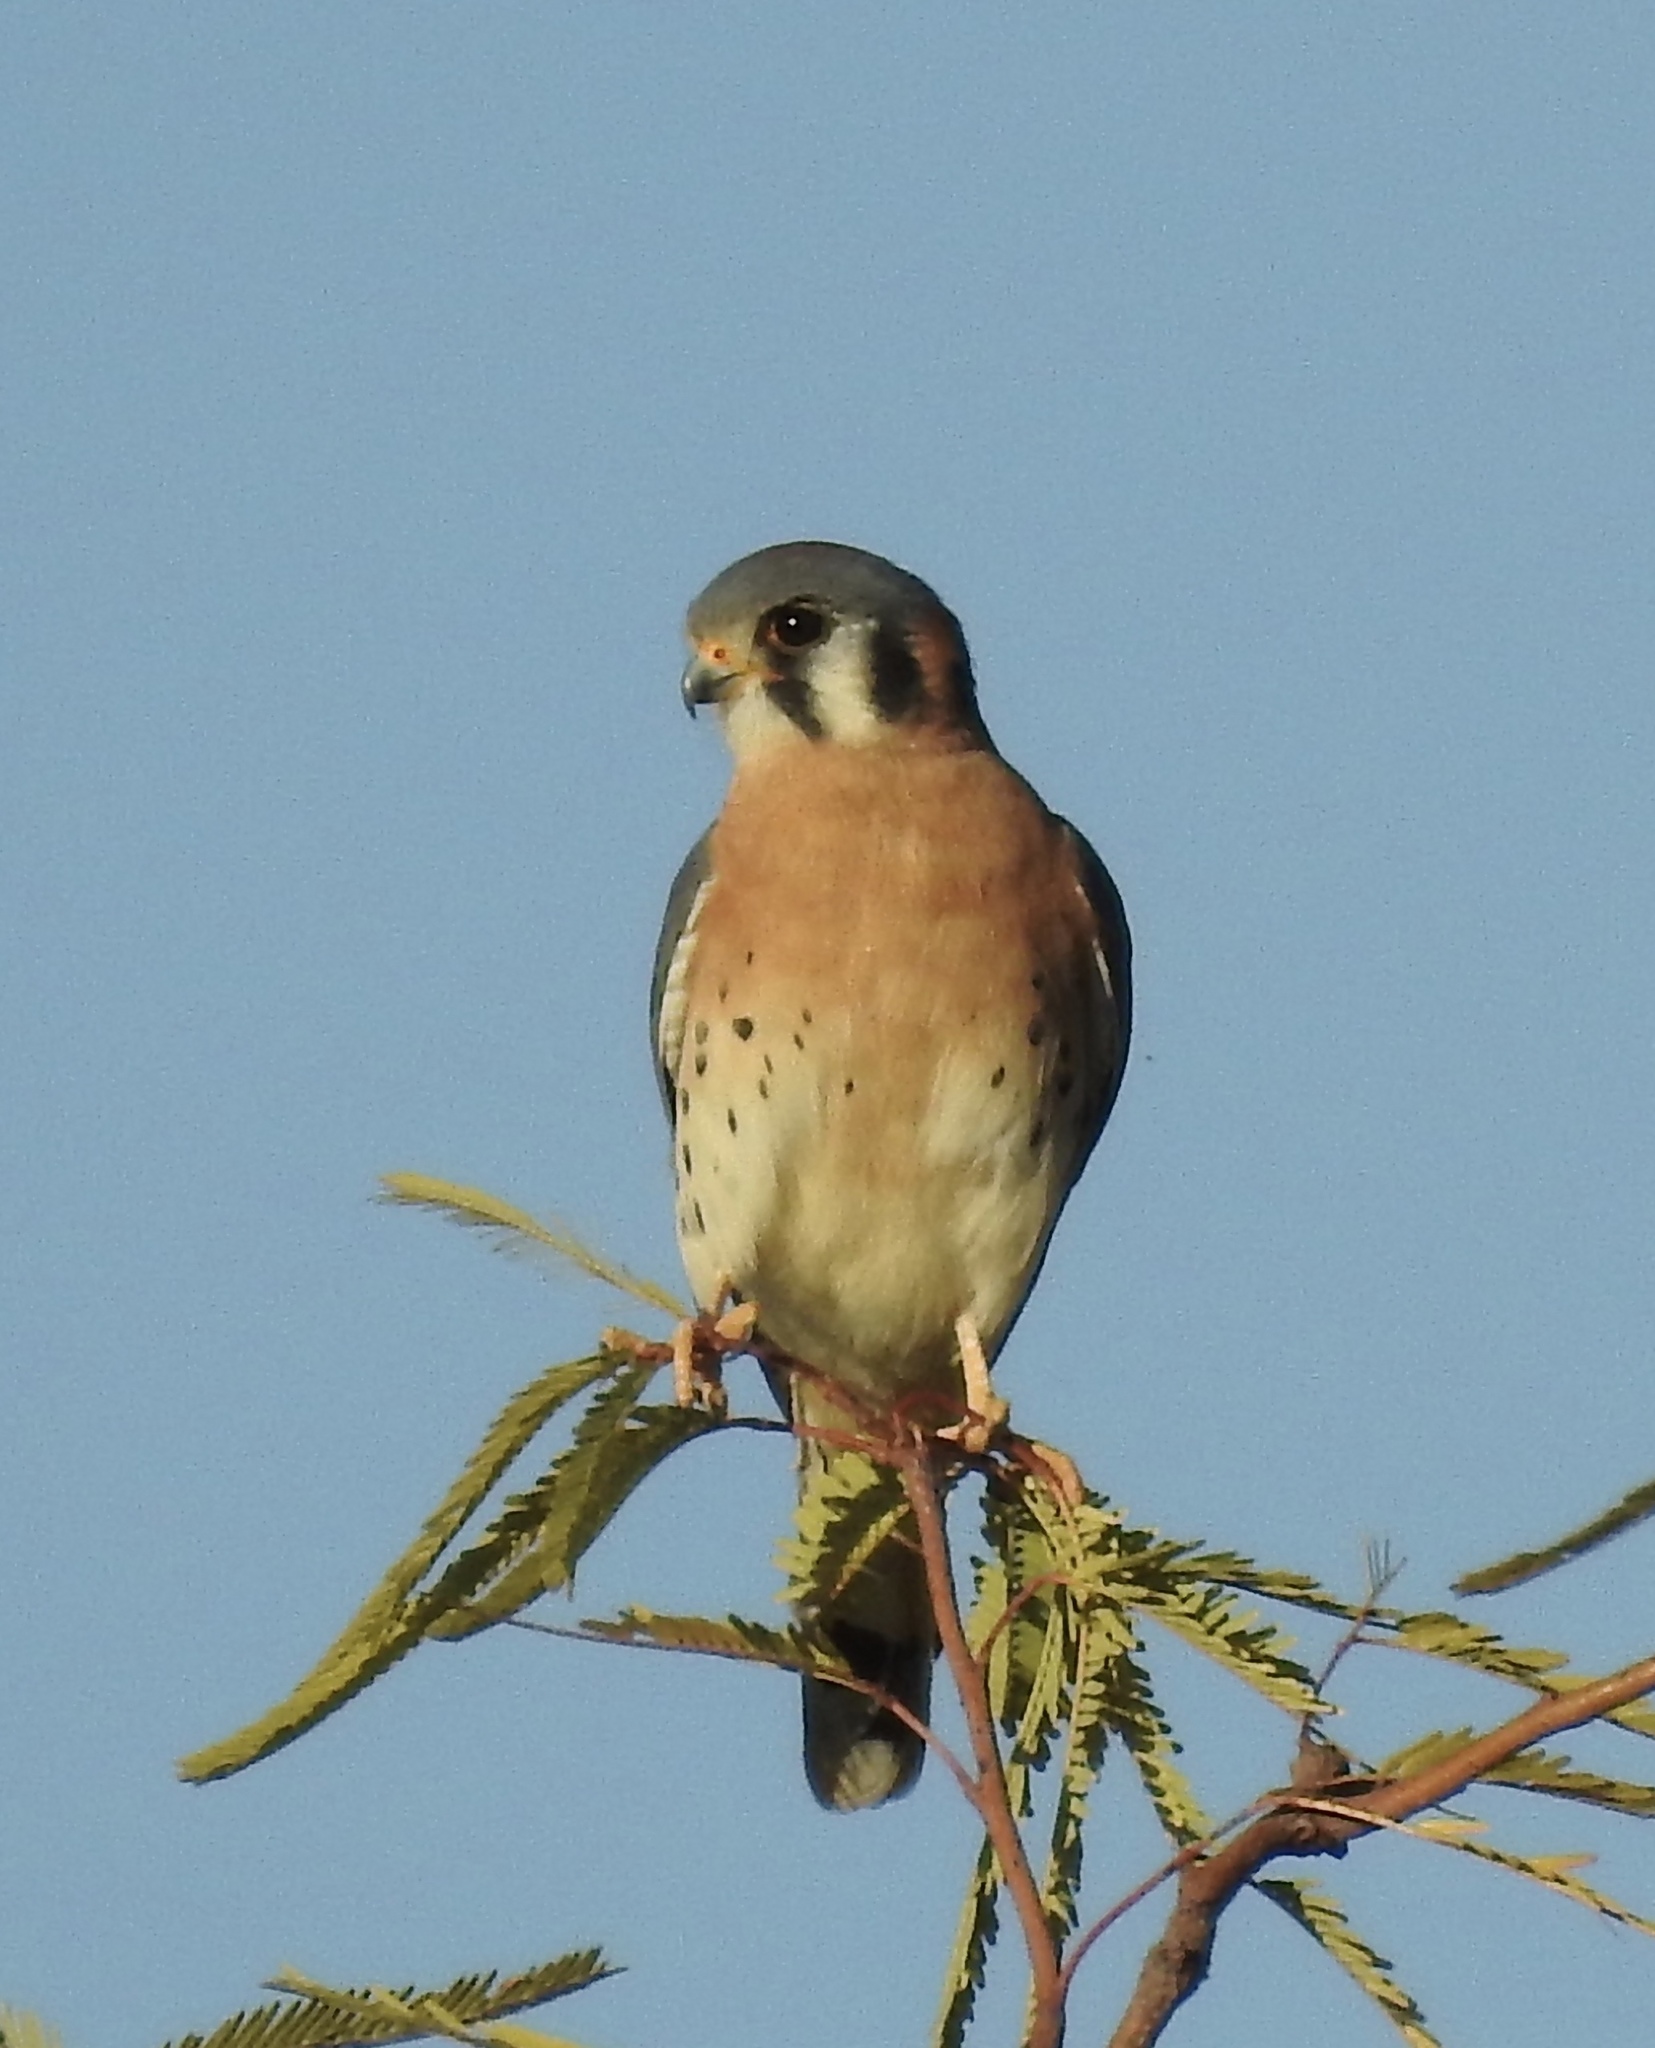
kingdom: Animalia
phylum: Chordata
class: Aves
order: Falconiformes
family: Falconidae
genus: Falco
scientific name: Falco sparverius
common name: American kestrel
